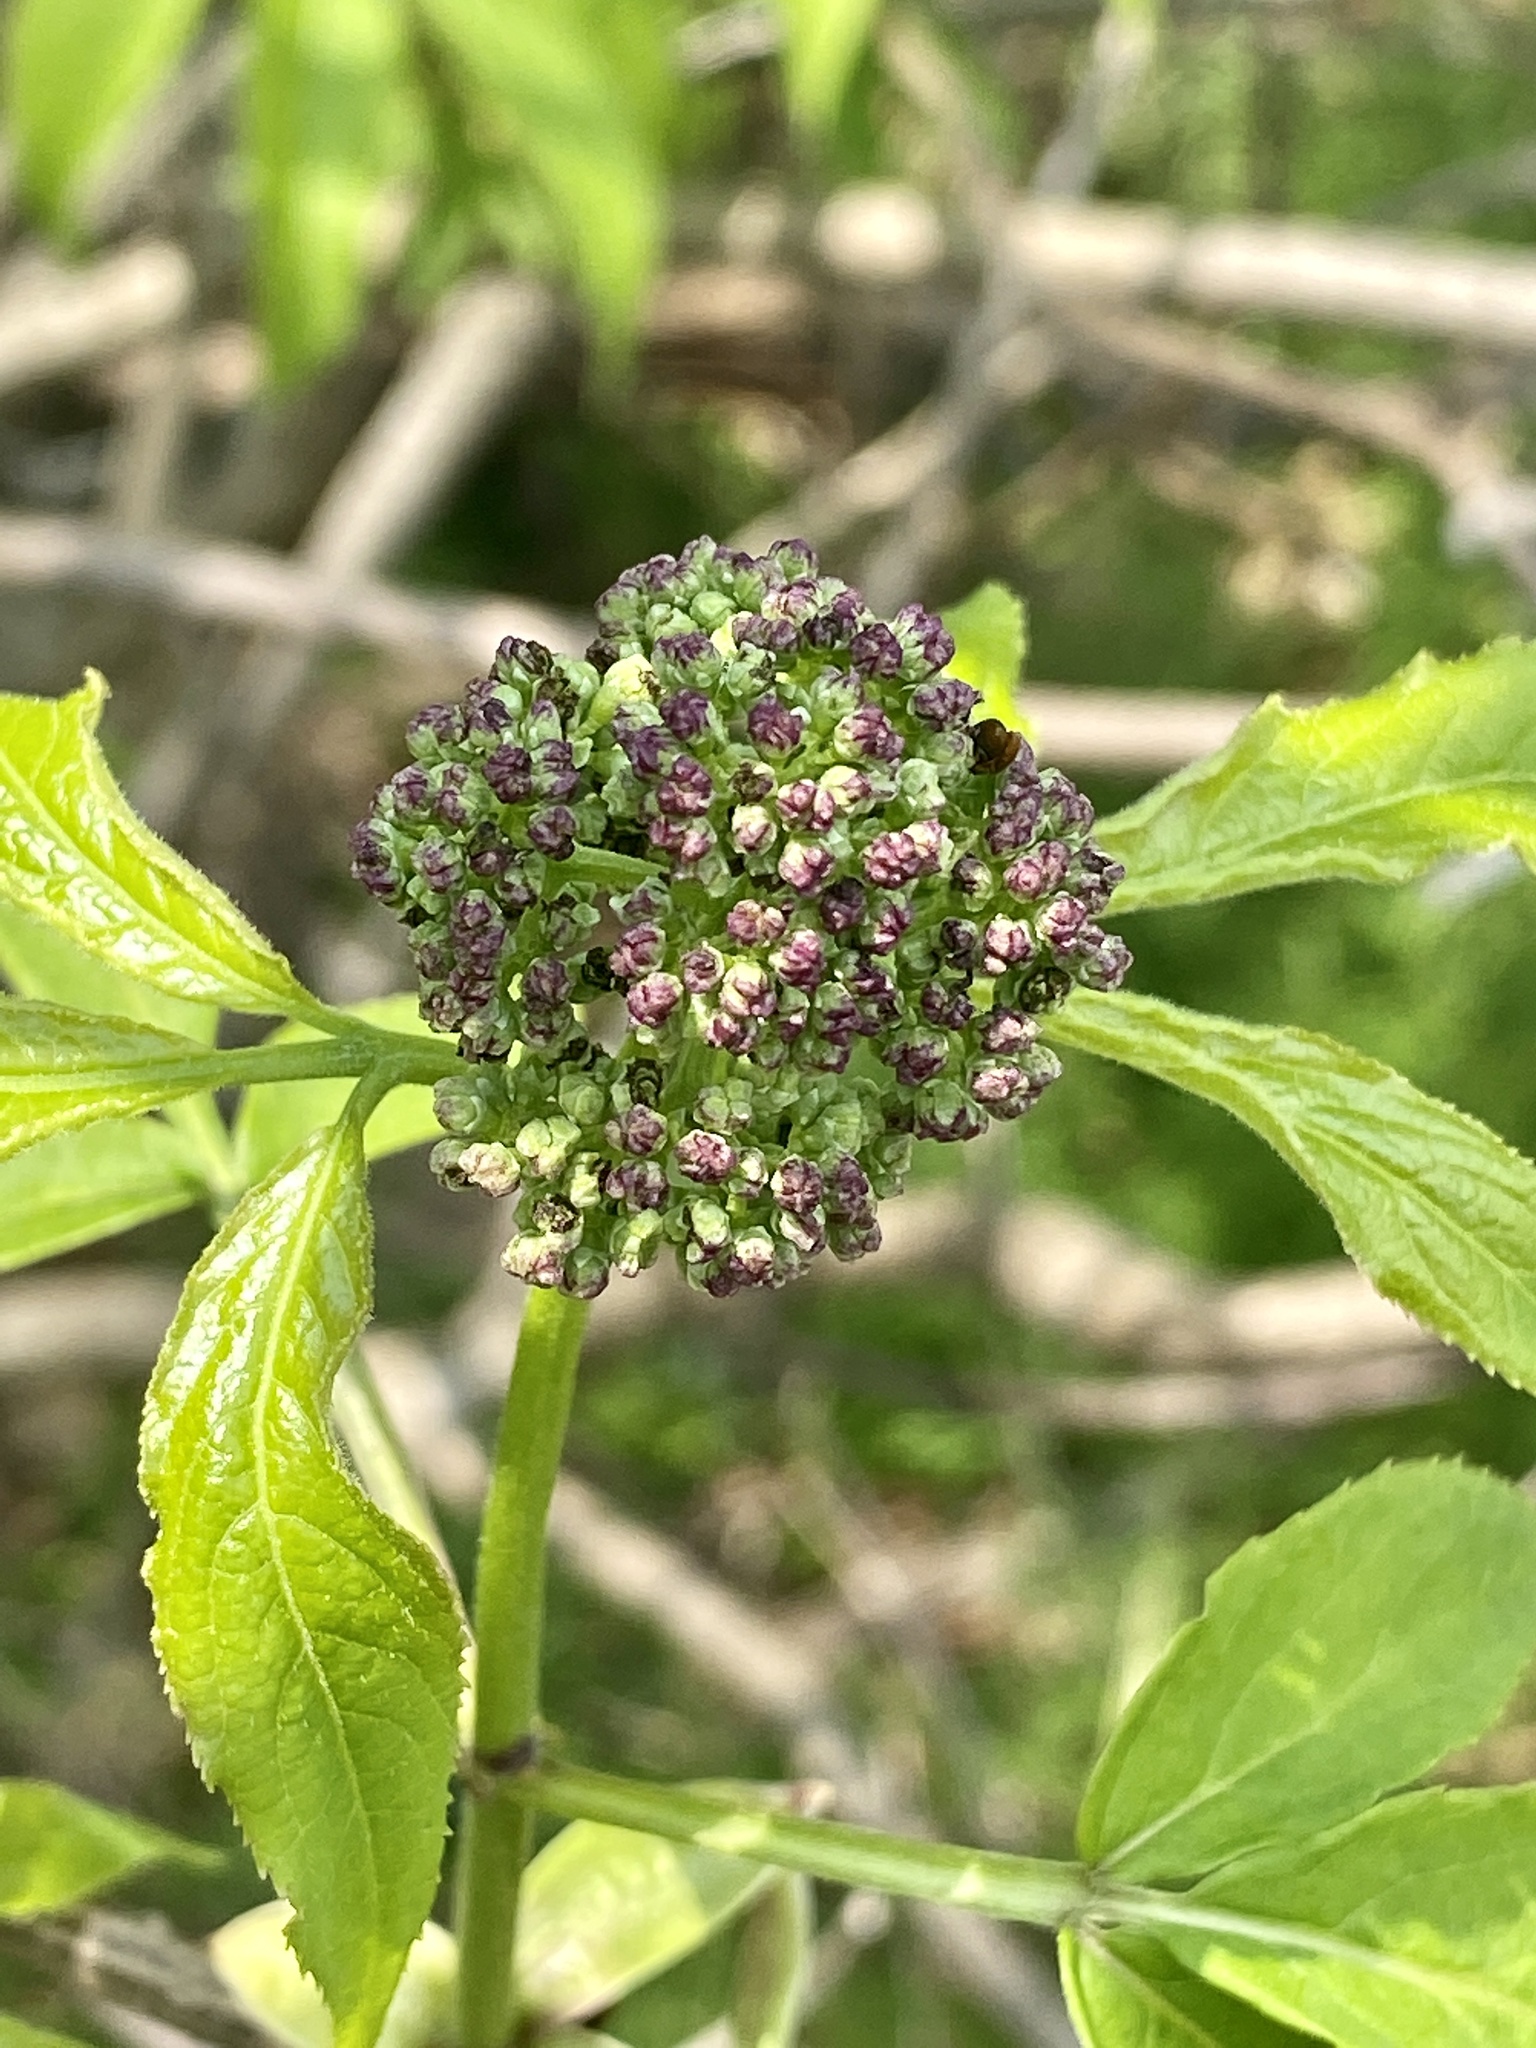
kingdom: Plantae
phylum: Tracheophyta
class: Magnoliopsida
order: Dipsacales
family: Viburnaceae
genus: Sambucus
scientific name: Sambucus racemosa
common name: Red-berried elder
